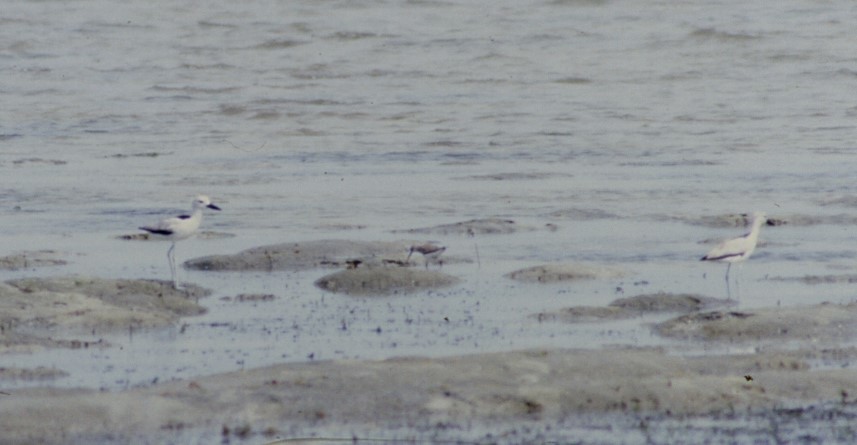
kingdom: Animalia
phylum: Chordata
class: Aves
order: Charadriiformes
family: Dromadidae
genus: Dromas
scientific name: Dromas ardeola
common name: Crab-plover
